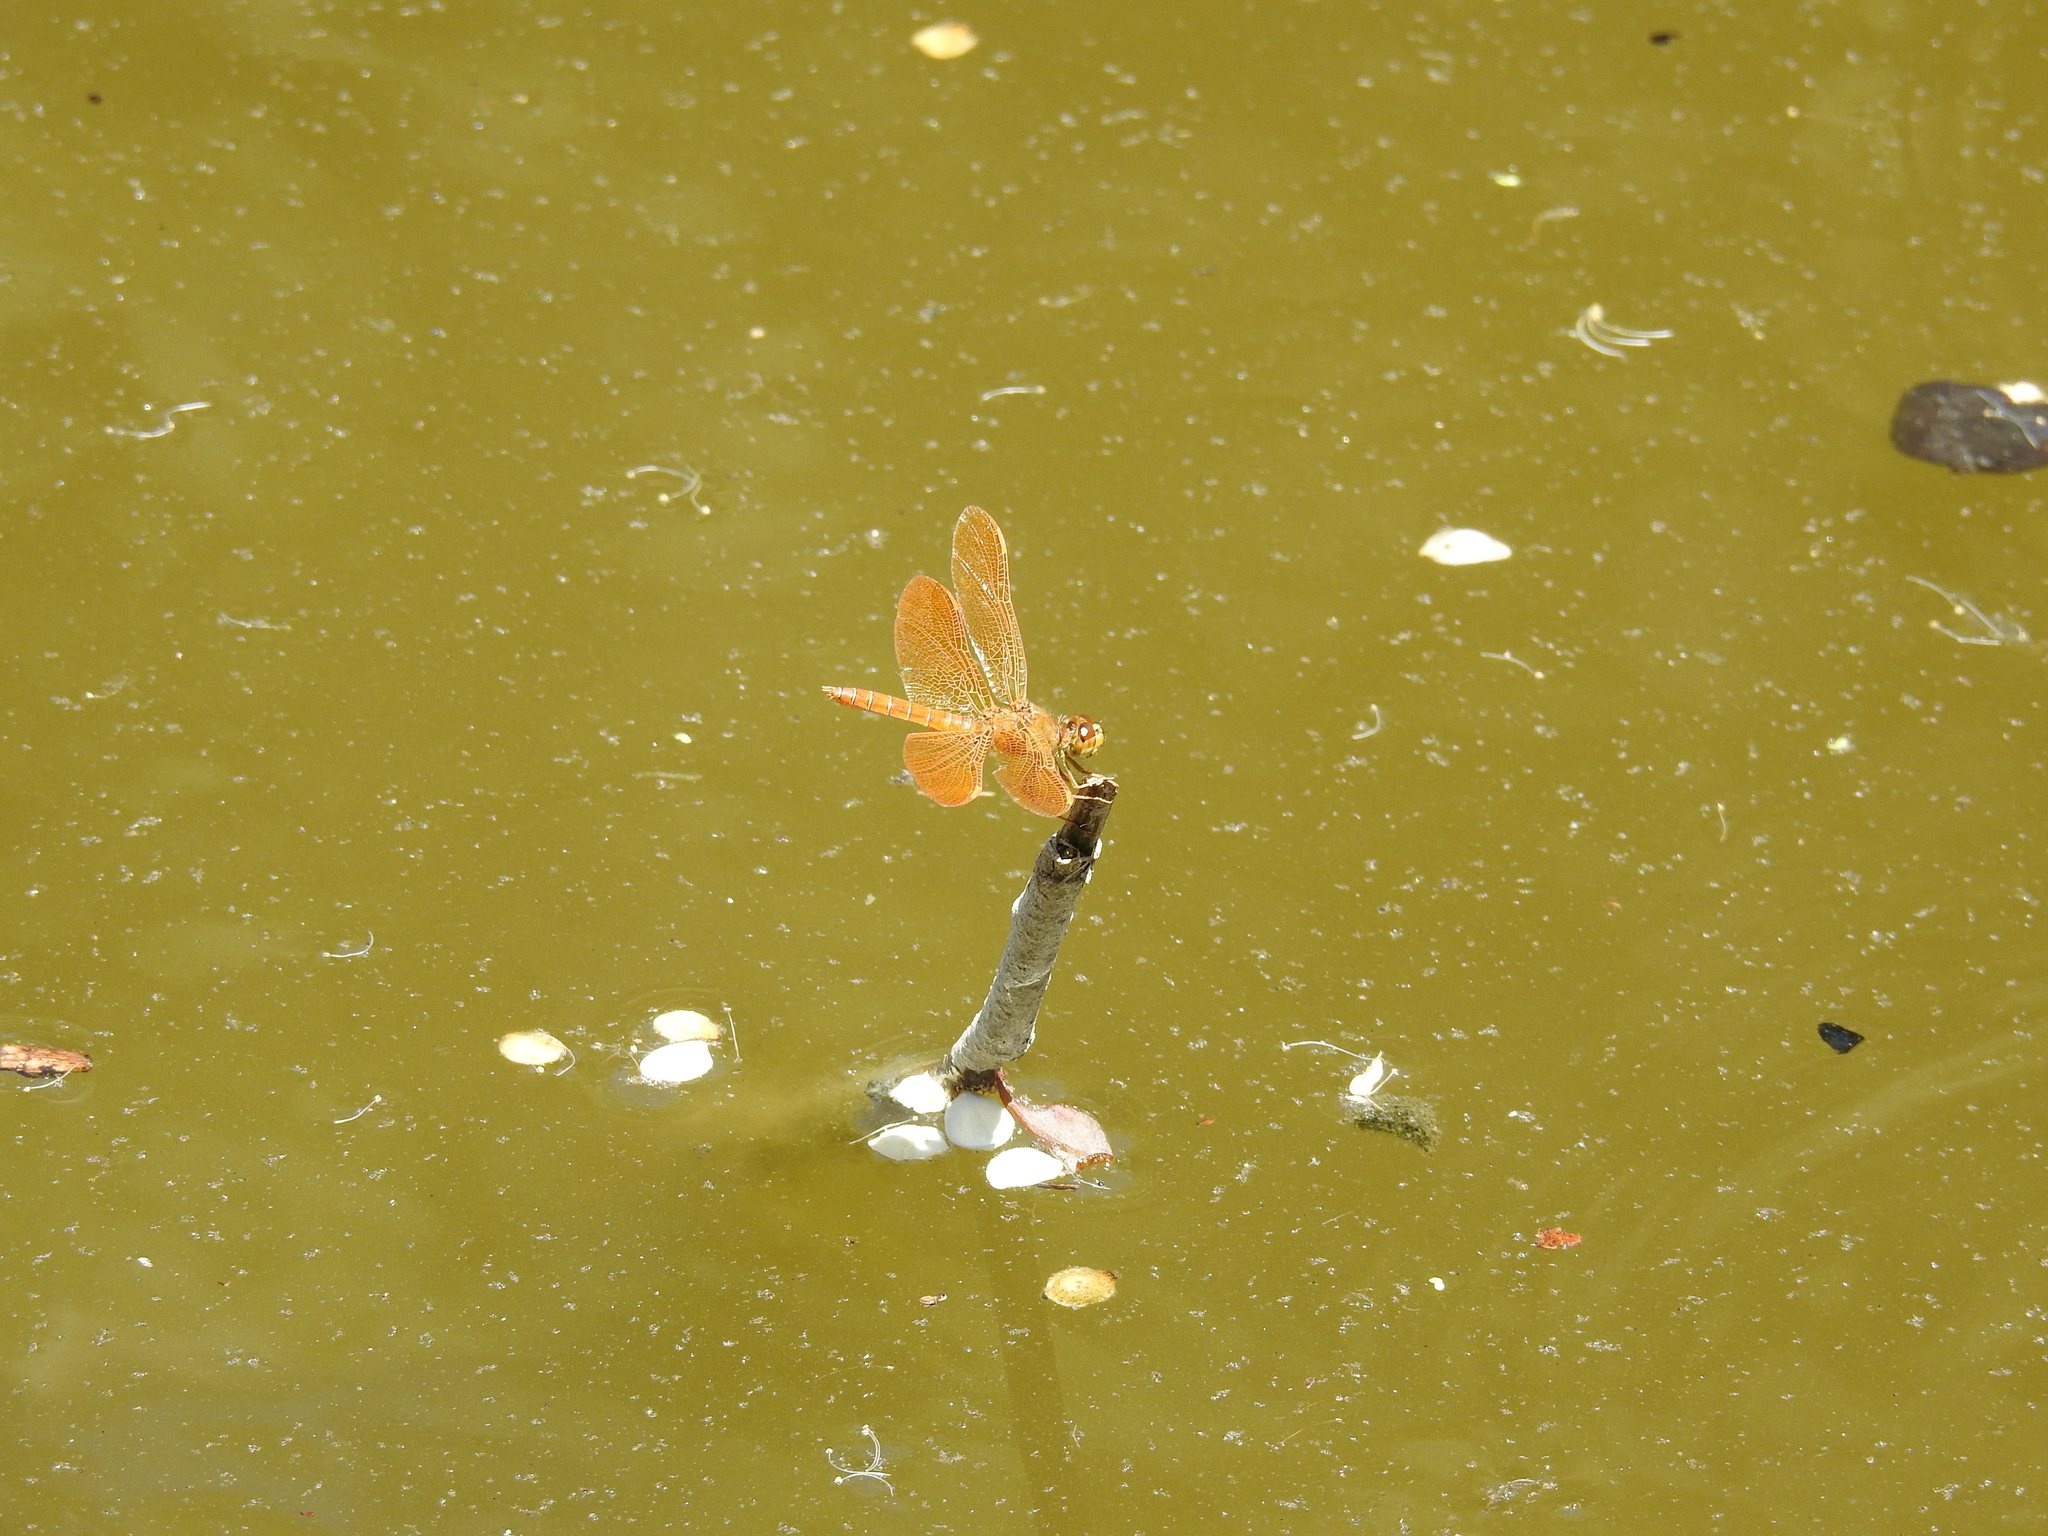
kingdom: Animalia
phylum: Arthropoda
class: Insecta
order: Odonata
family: Libellulidae
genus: Perithemis
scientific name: Perithemis intensa
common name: Mexican amberwing
